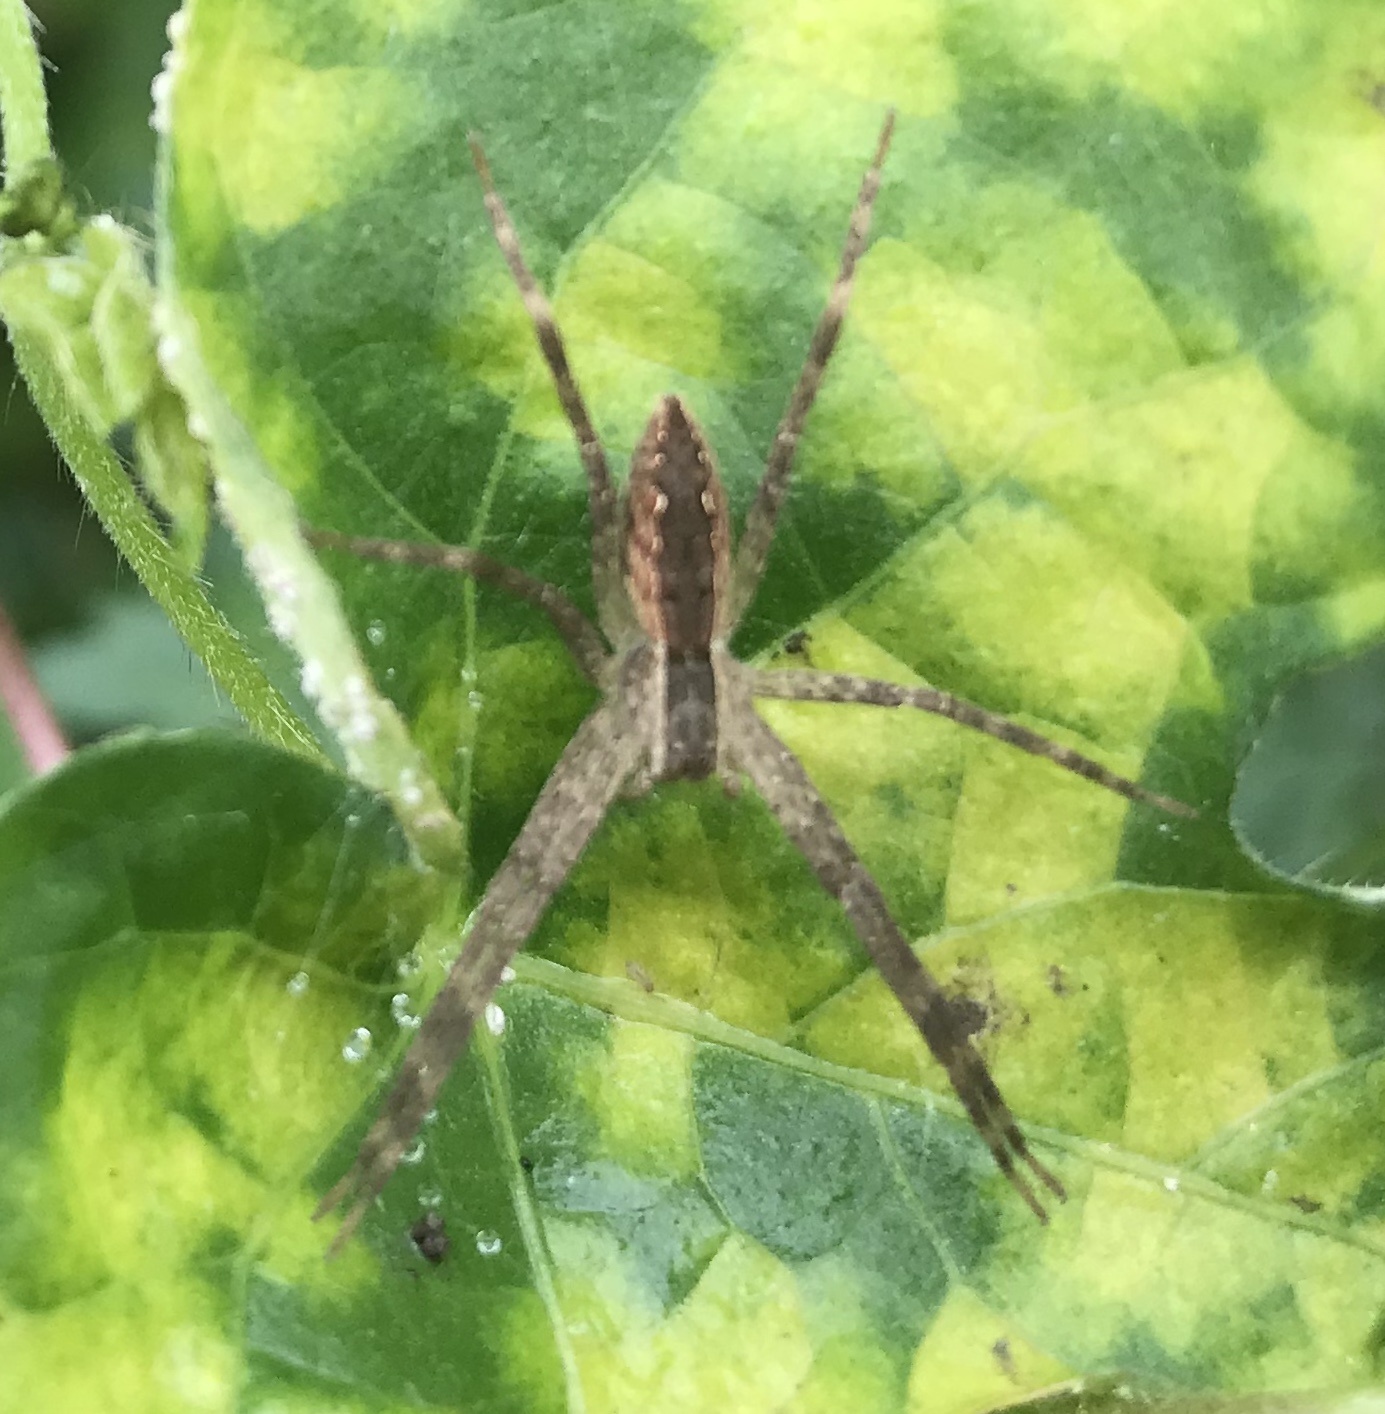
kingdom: Animalia
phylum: Arthropoda
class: Arachnida
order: Araneae
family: Pisauridae
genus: Pisaurina
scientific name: Pisaurina mira
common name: American nursery web spider
